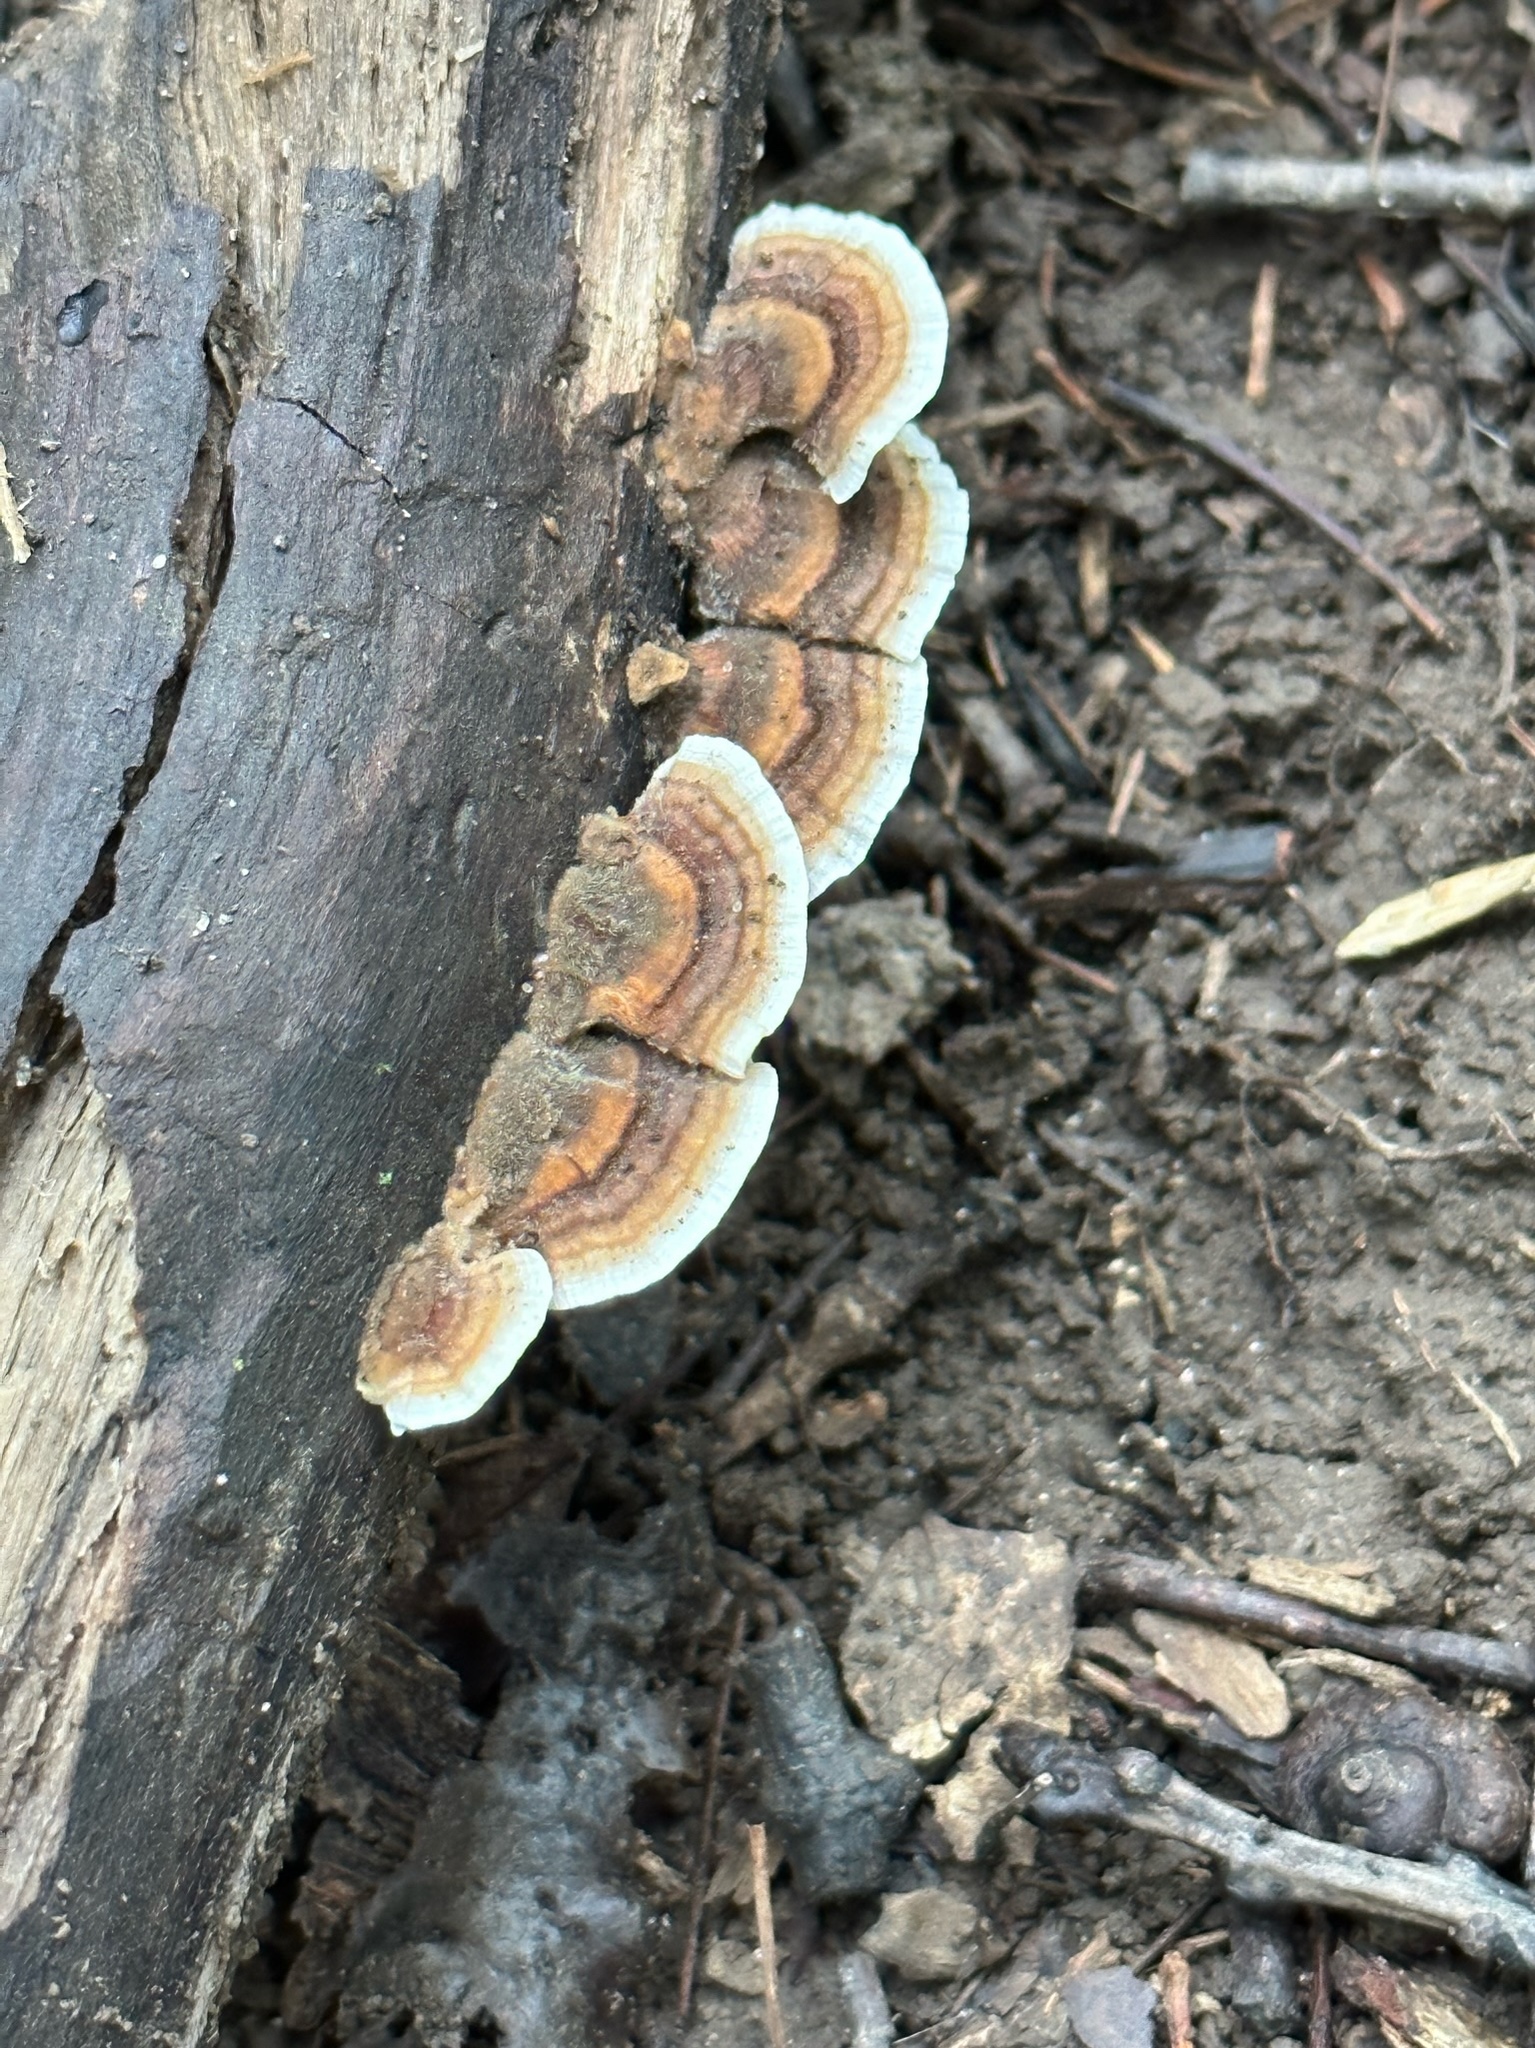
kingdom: Fungi
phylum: Basidiomycota
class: Agaricomycetes
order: Polyporales
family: Polyporaceae
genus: Trametes
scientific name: Trametes versicolor
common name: Turkeytail
